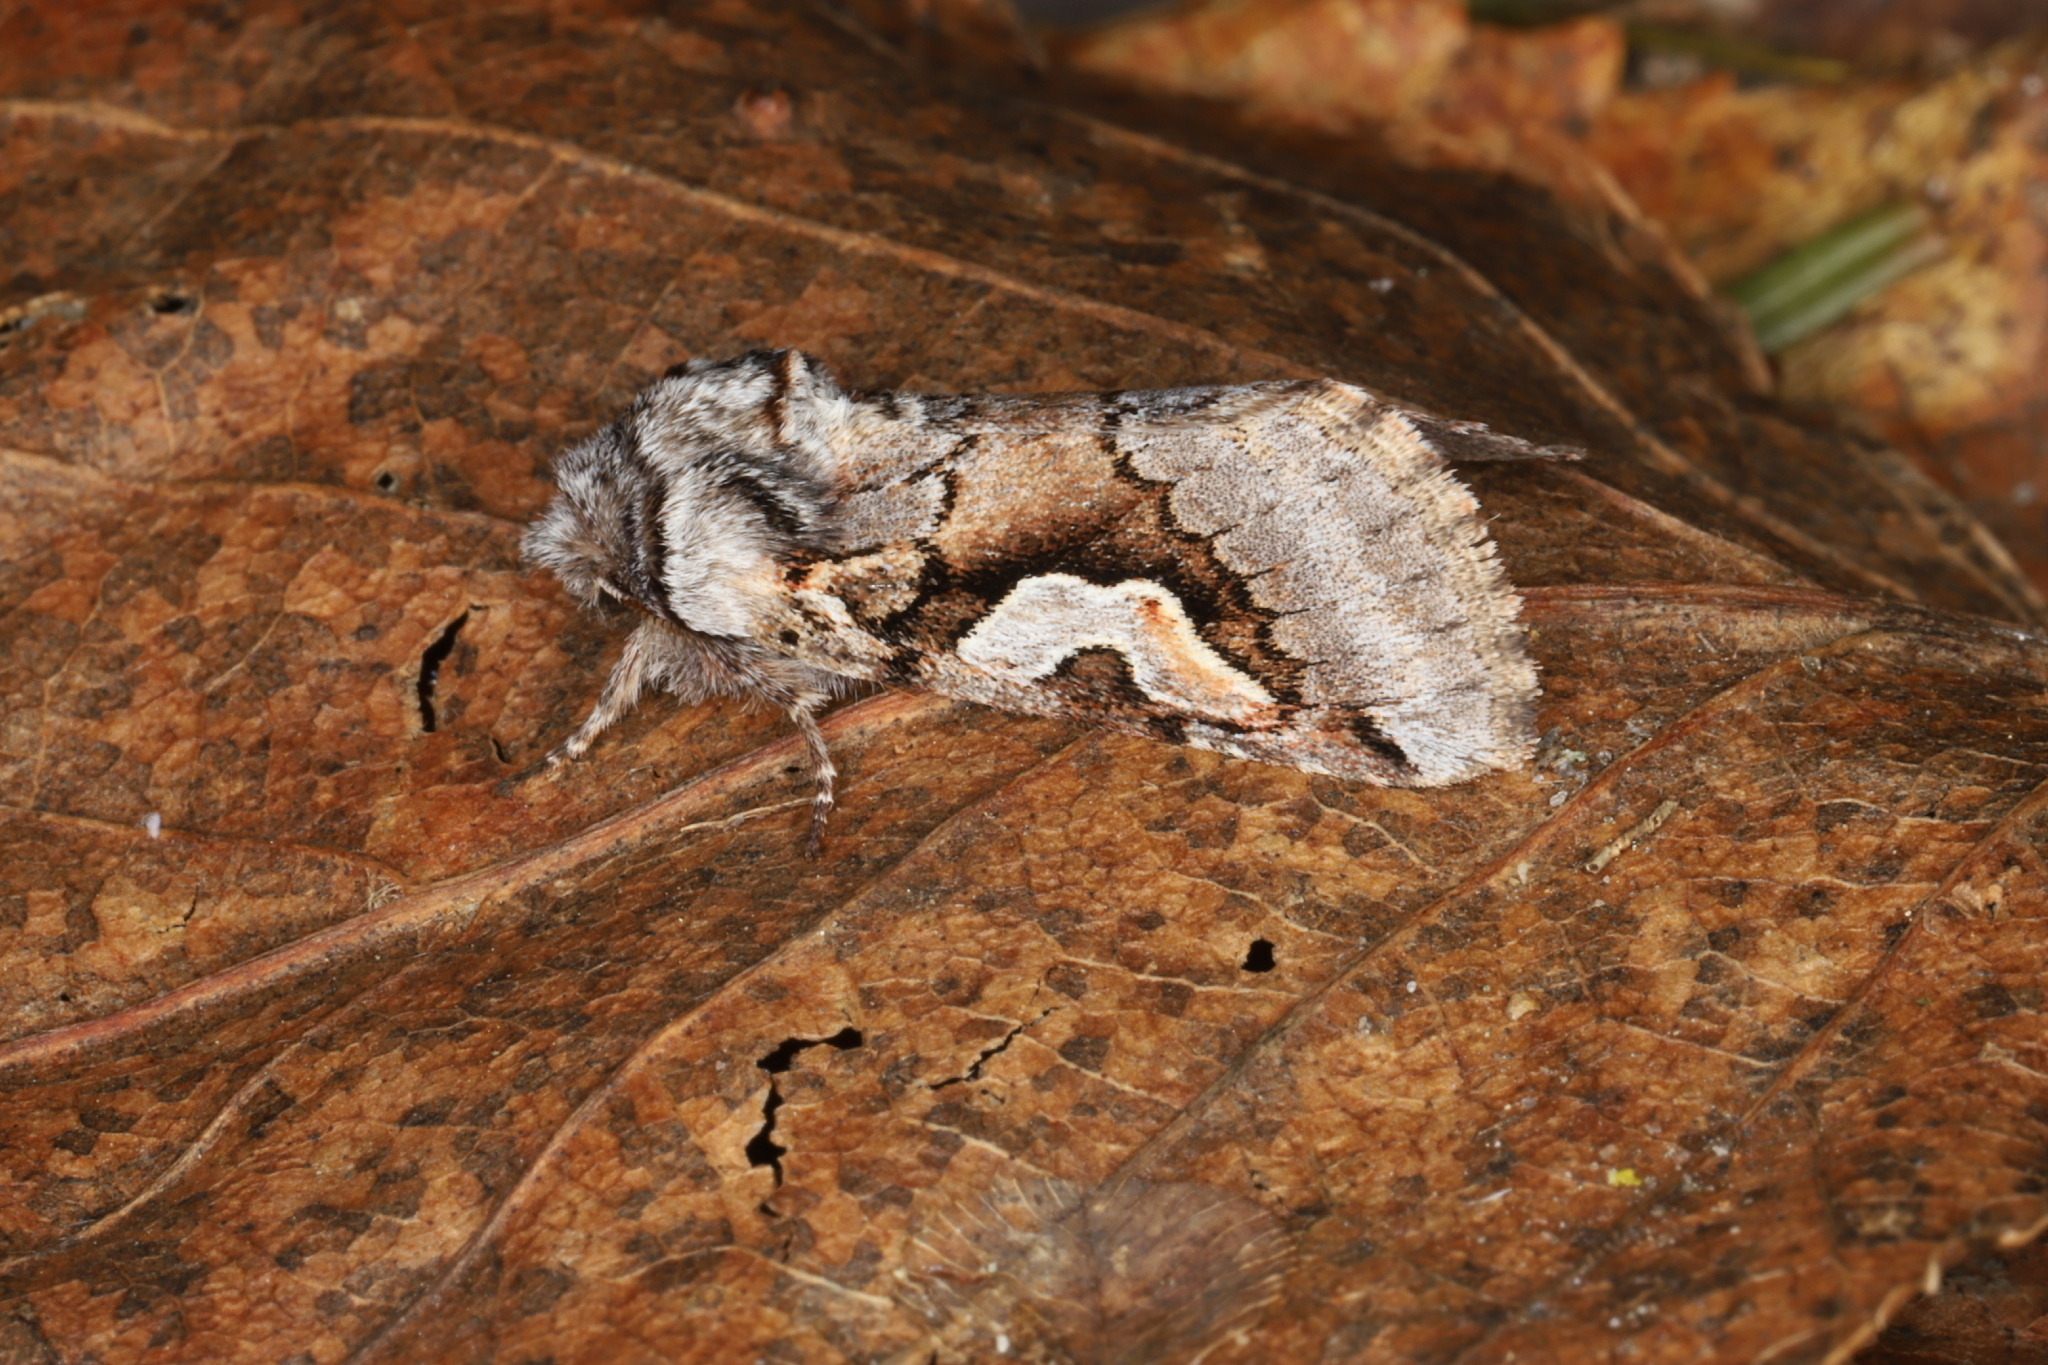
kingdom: Animalia
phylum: Arthropoda
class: Insecta
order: Lepidoptera
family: Noctuidae
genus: Stretchia
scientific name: Stretchia plusiaeformis
